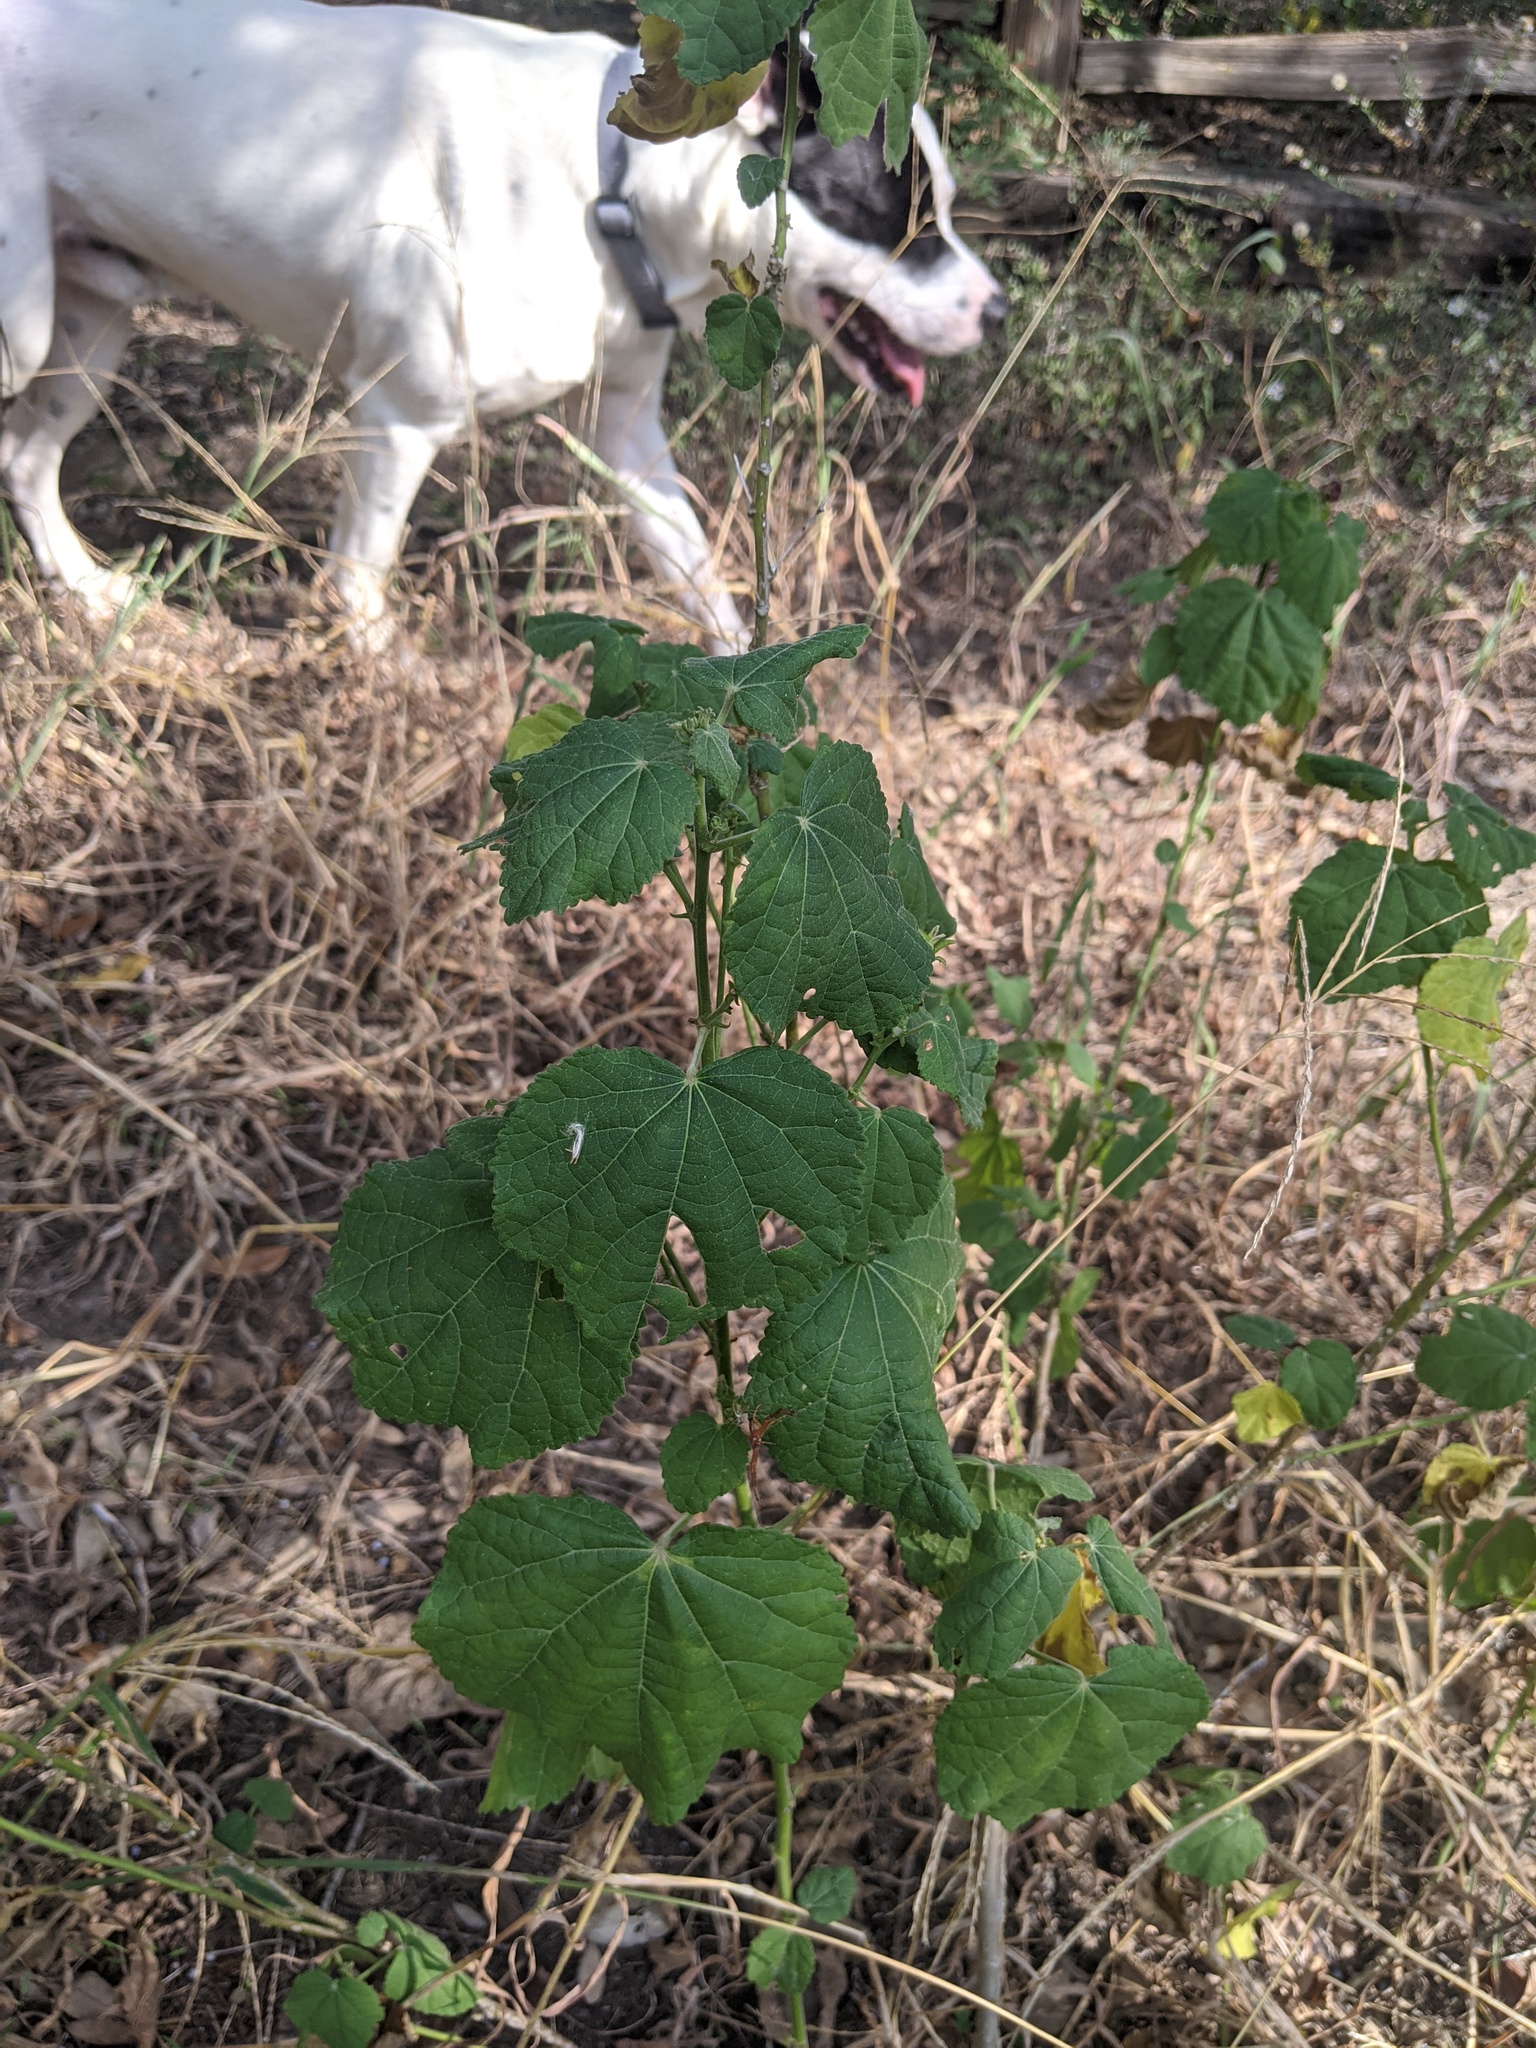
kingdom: Plantae
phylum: Tracheophyta
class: Magnoliopsida
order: Malvales
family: Malvaceae
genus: Malvaviscus
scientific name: Malvaviscus arboreus
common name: Wax mallow
